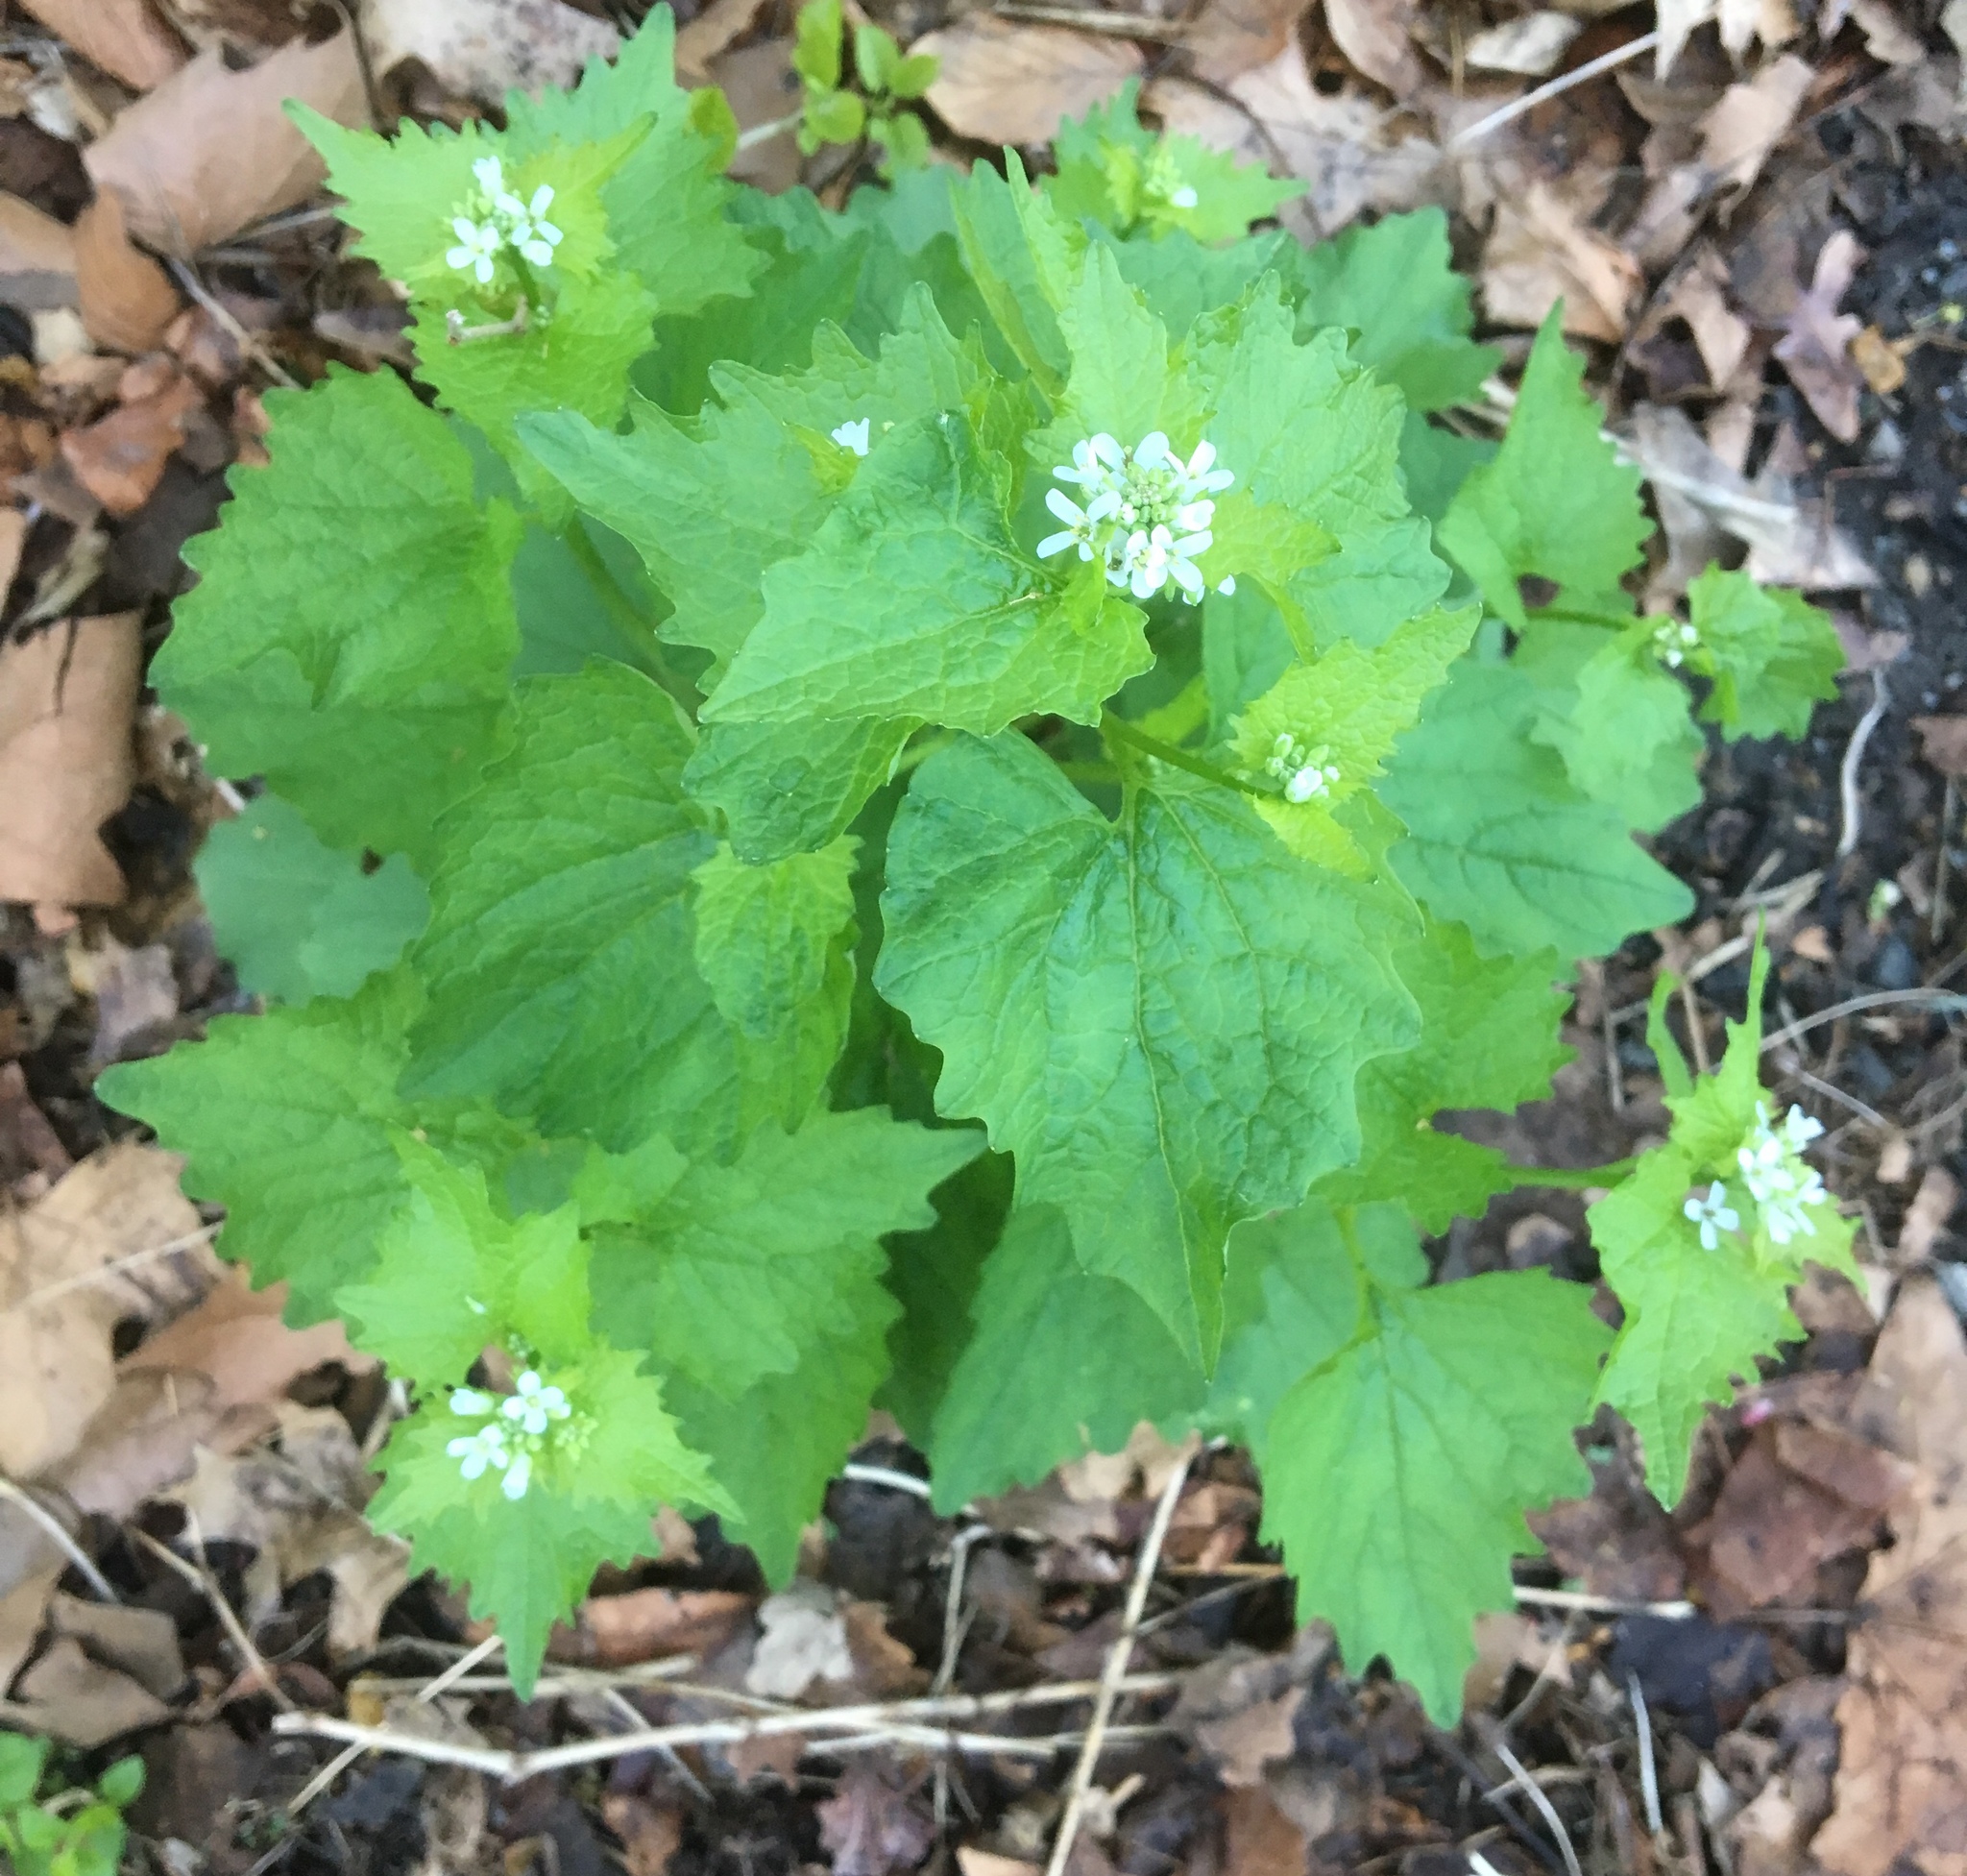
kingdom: Plantae
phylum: Tracheophyta
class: Magnoliopsida
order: Brassicales
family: Brassicaceae
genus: Alliaria
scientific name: Alliaria petiolata
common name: Garlic mustard
